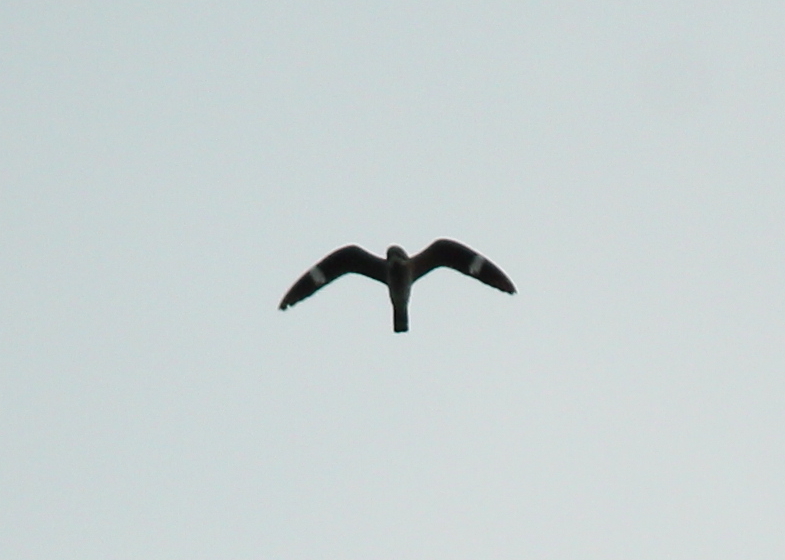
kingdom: Animalia
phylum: Chordata
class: Aves
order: Caprimulgiformes
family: Caprimulgidae
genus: Chordeiles
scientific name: Chordeiles minor
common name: Common nighthawk
